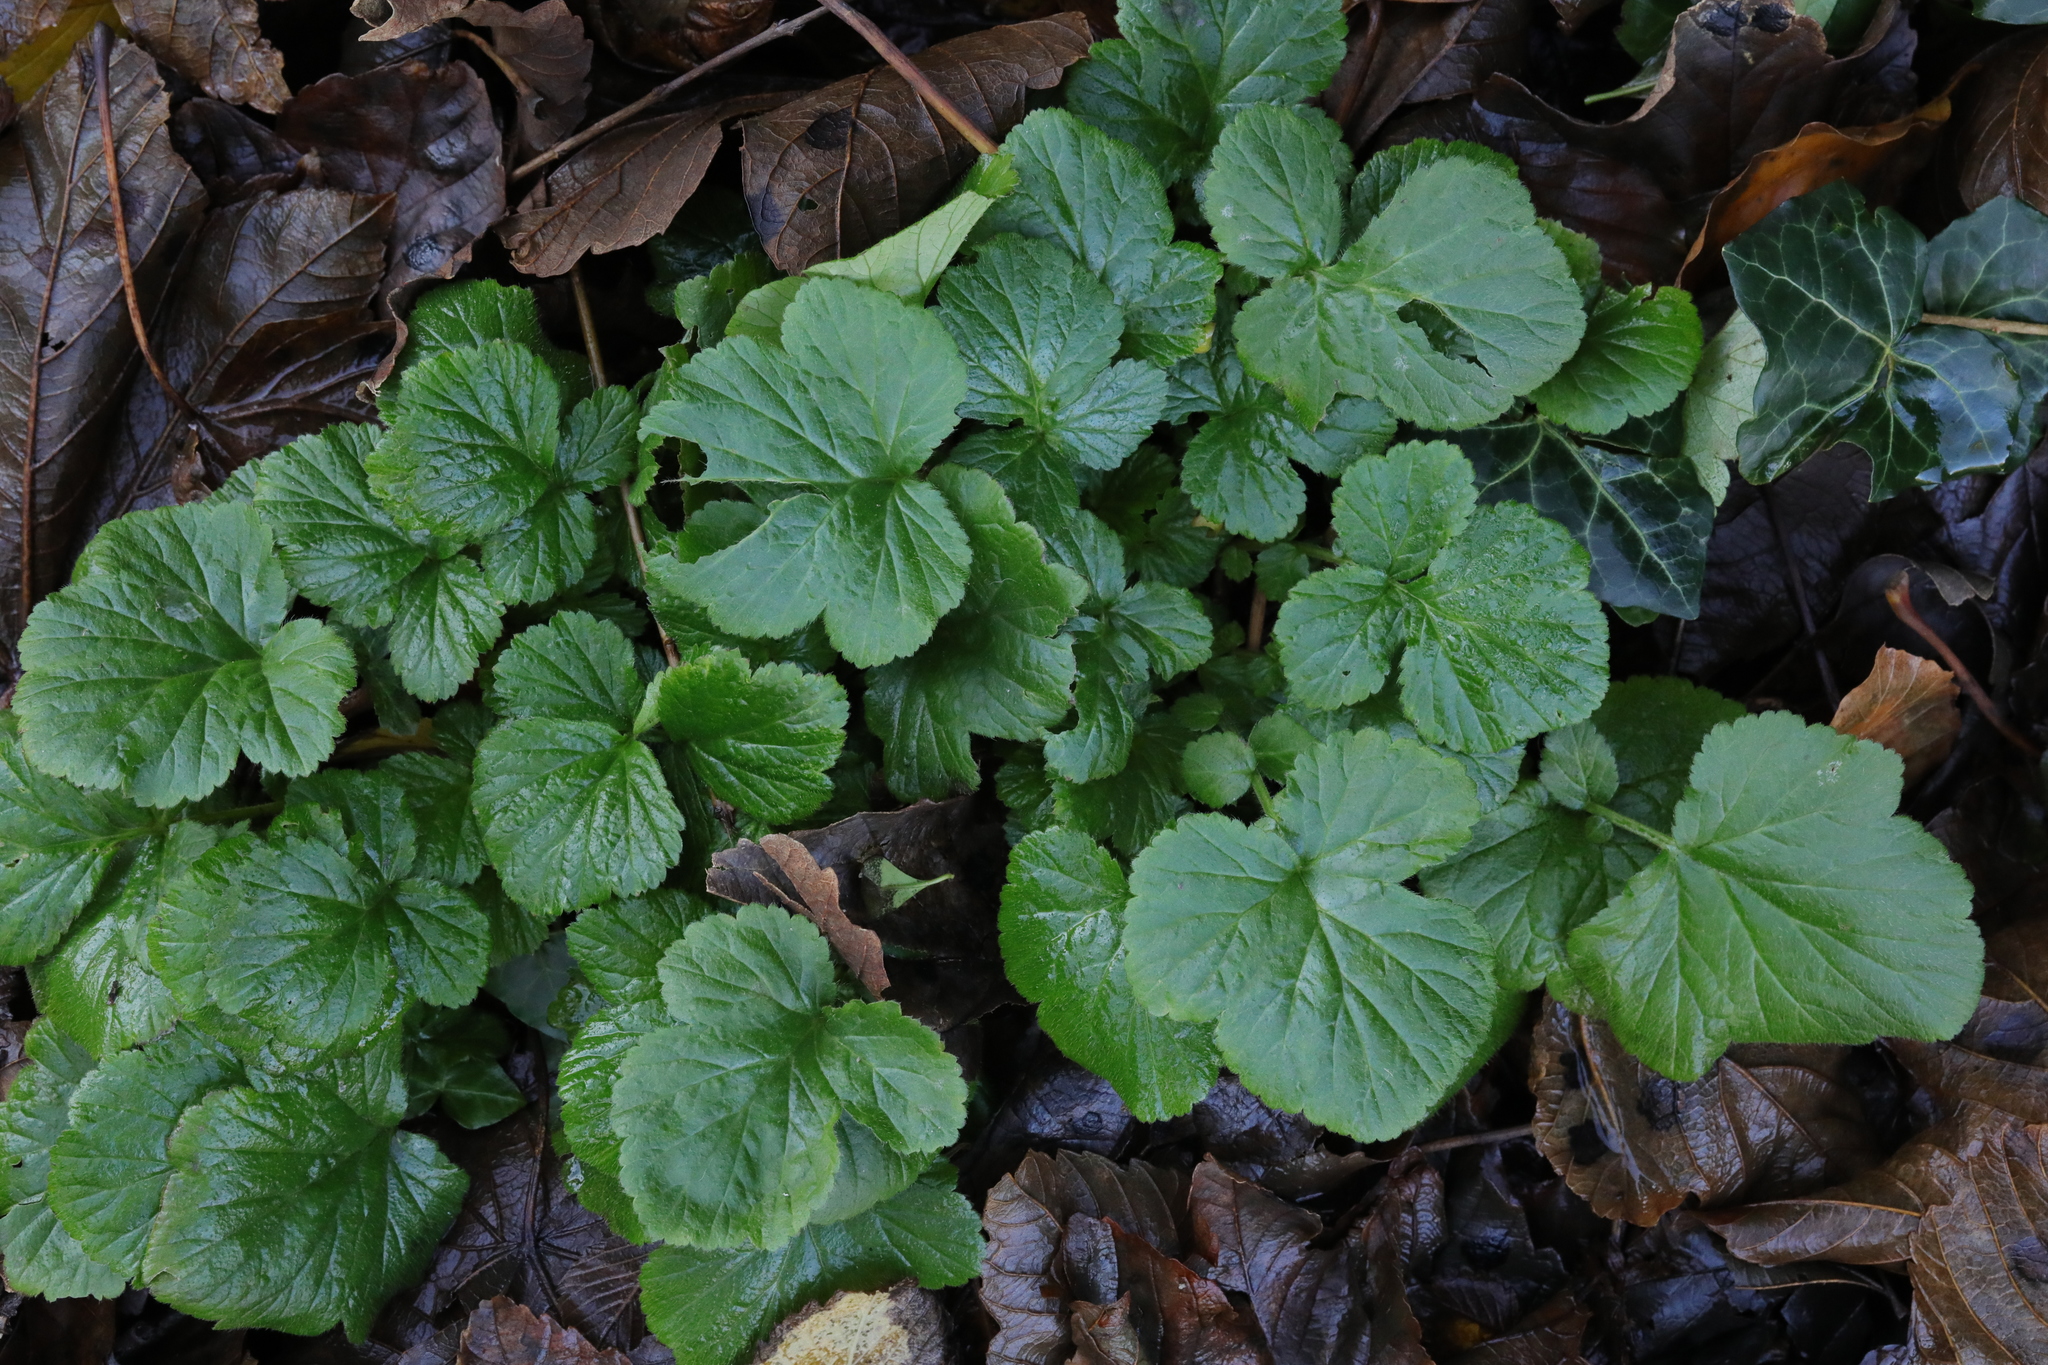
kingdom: Plantae
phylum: Tracheophyta
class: Magnoliopsida
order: Rosales
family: Rosaceae
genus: Geum
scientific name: Geum urbanum
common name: Wood avens
